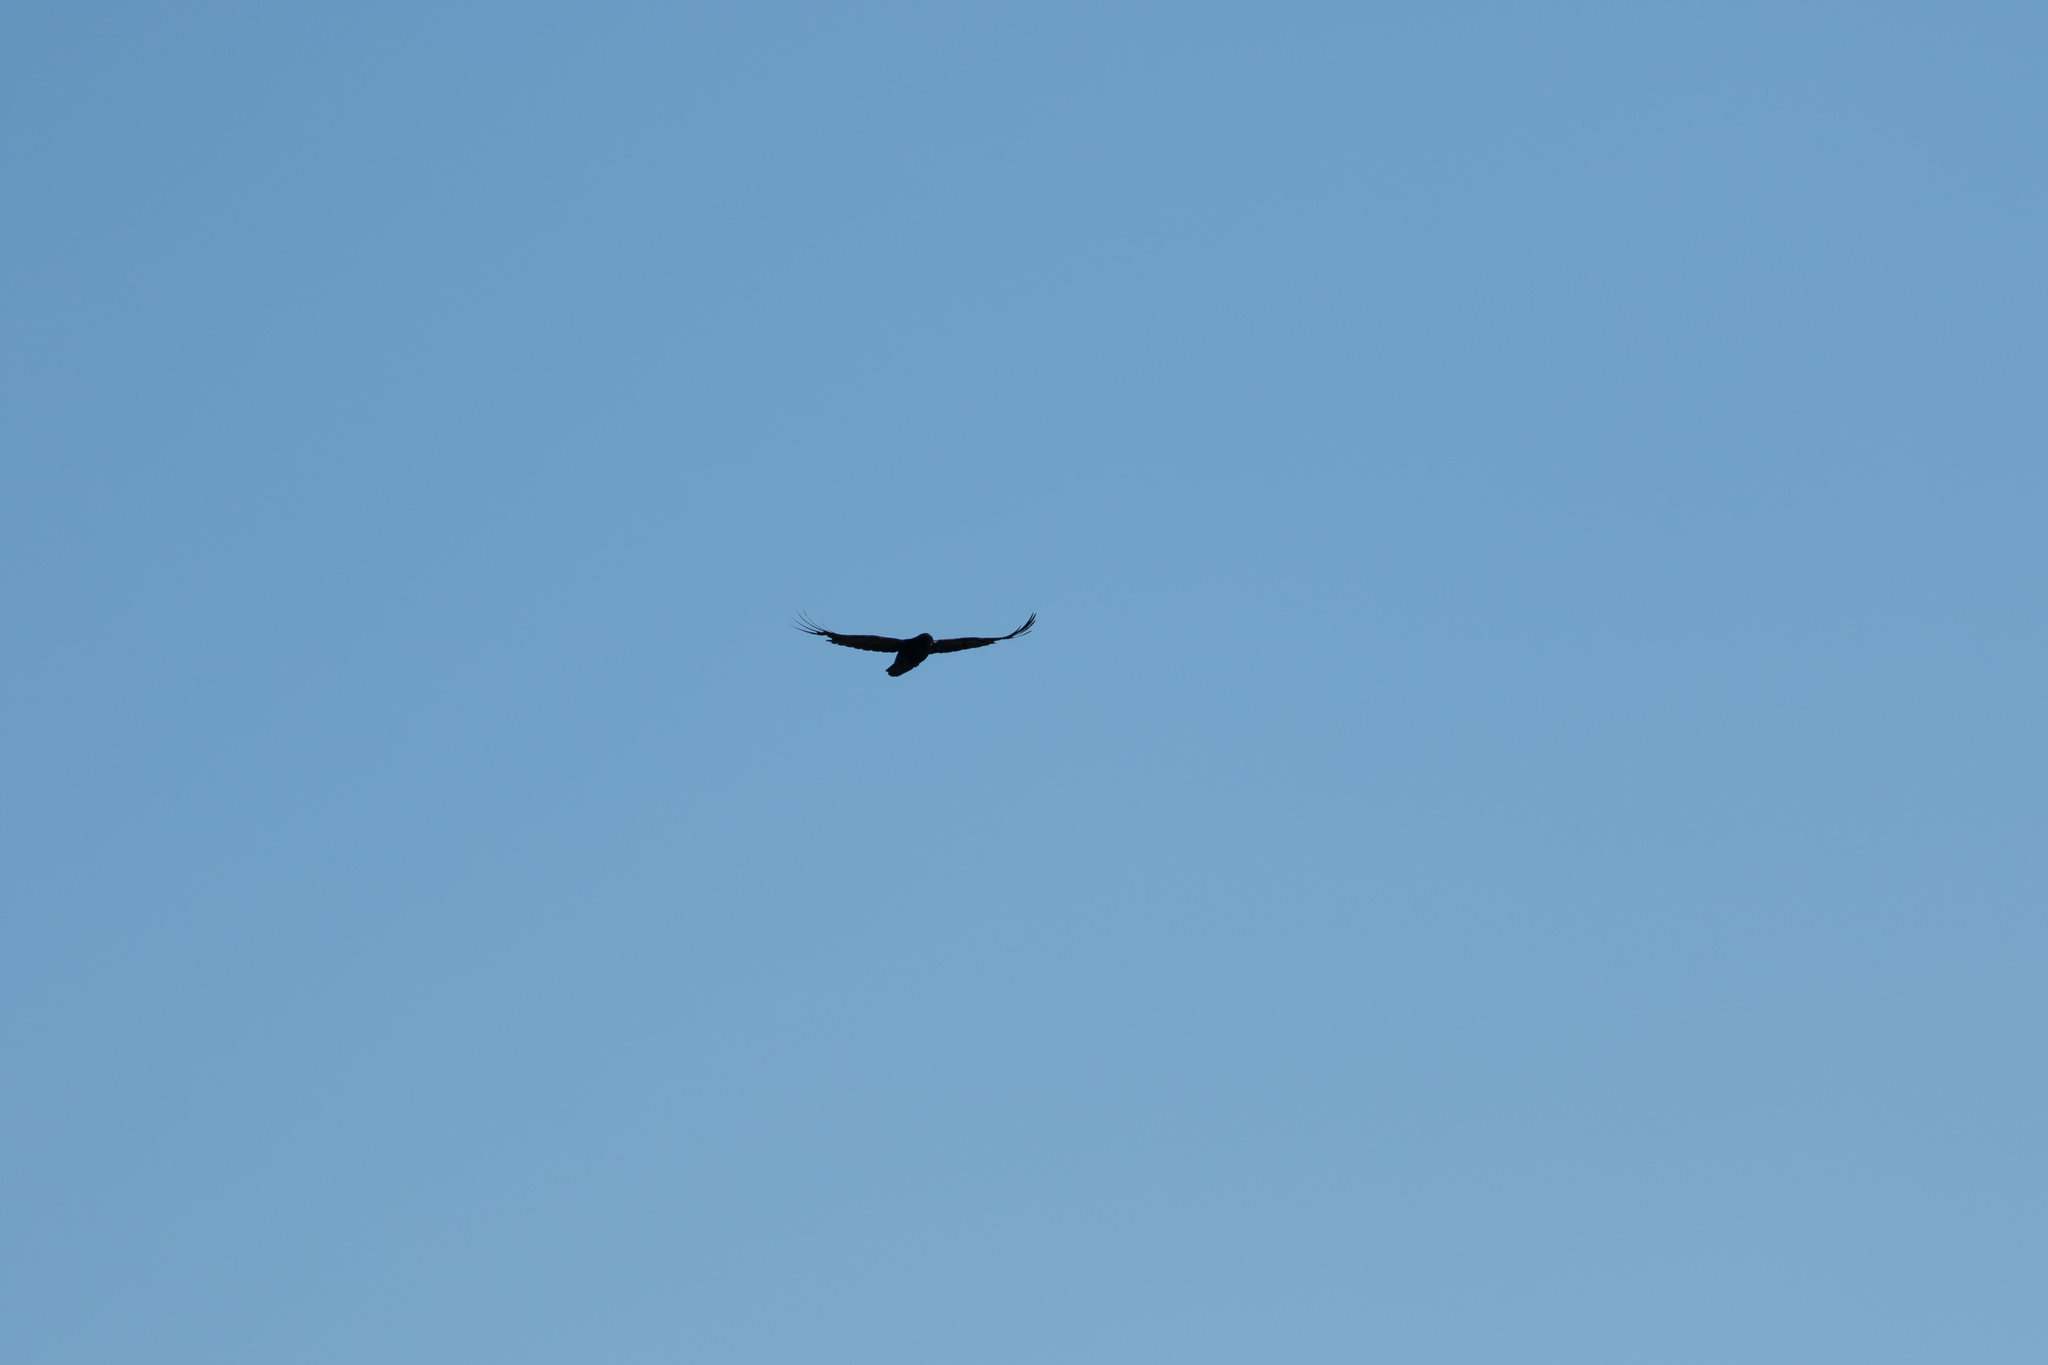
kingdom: Animalia
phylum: Chordata
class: Aves
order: Passeriformes
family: Corvidae
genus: Corvus
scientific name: Corvus corax
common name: Common raven
